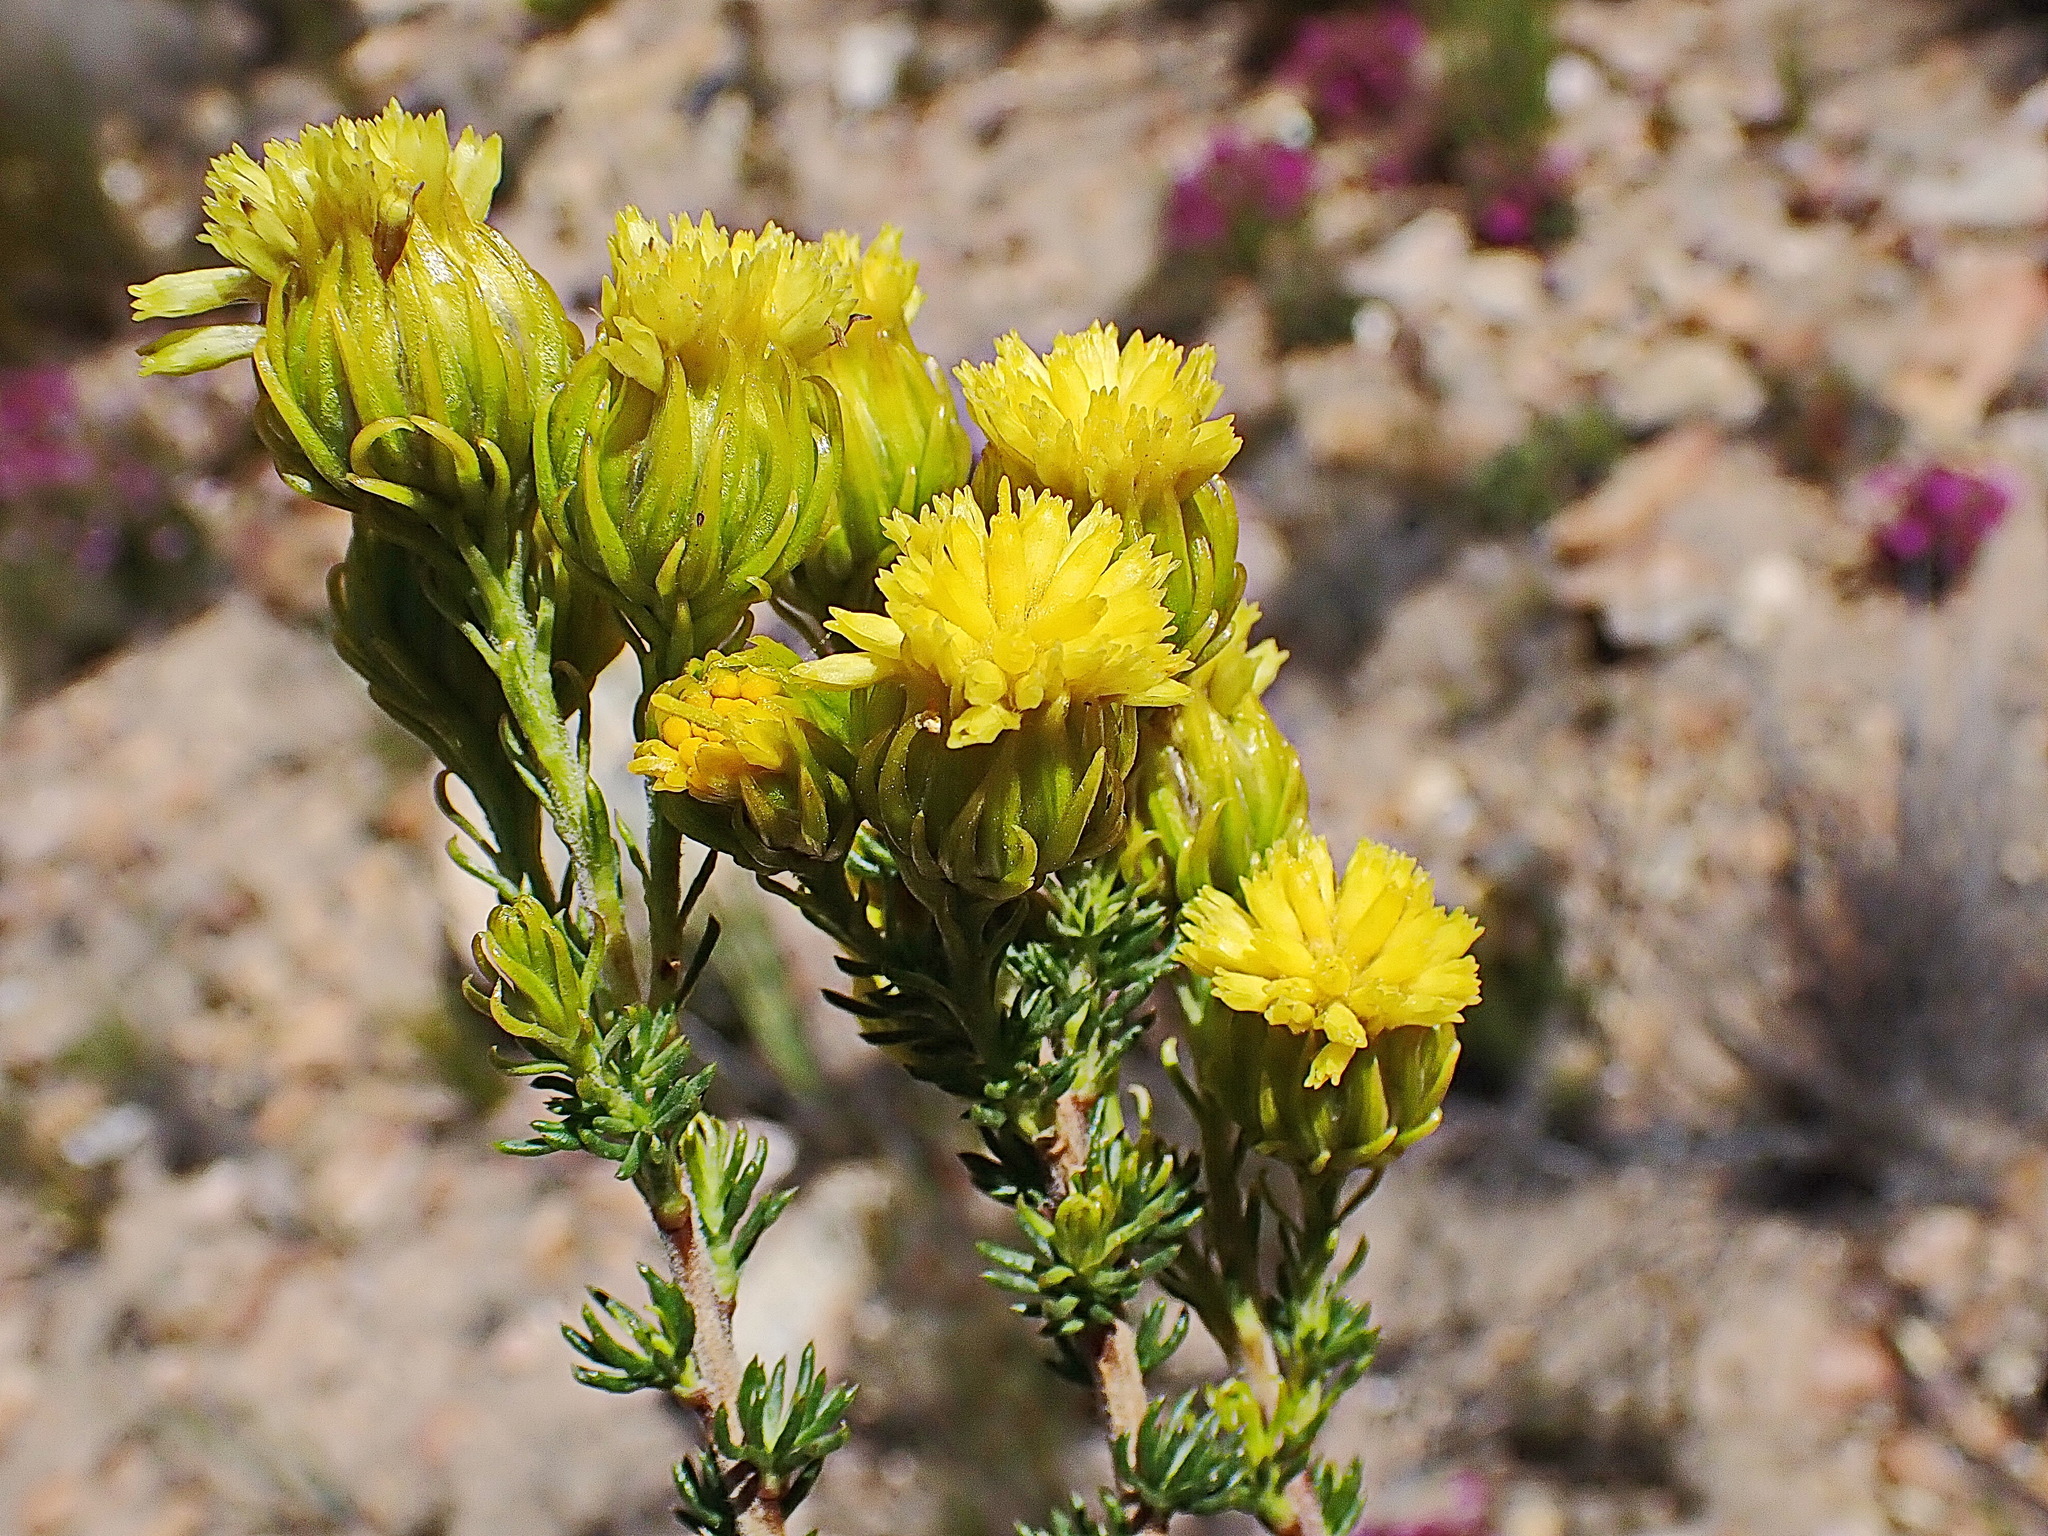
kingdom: Plantae
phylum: Tracheophyta
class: Magnoliopsida
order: Asterales
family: Asteraceae
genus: Pteronia
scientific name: Pteronia camphorata
